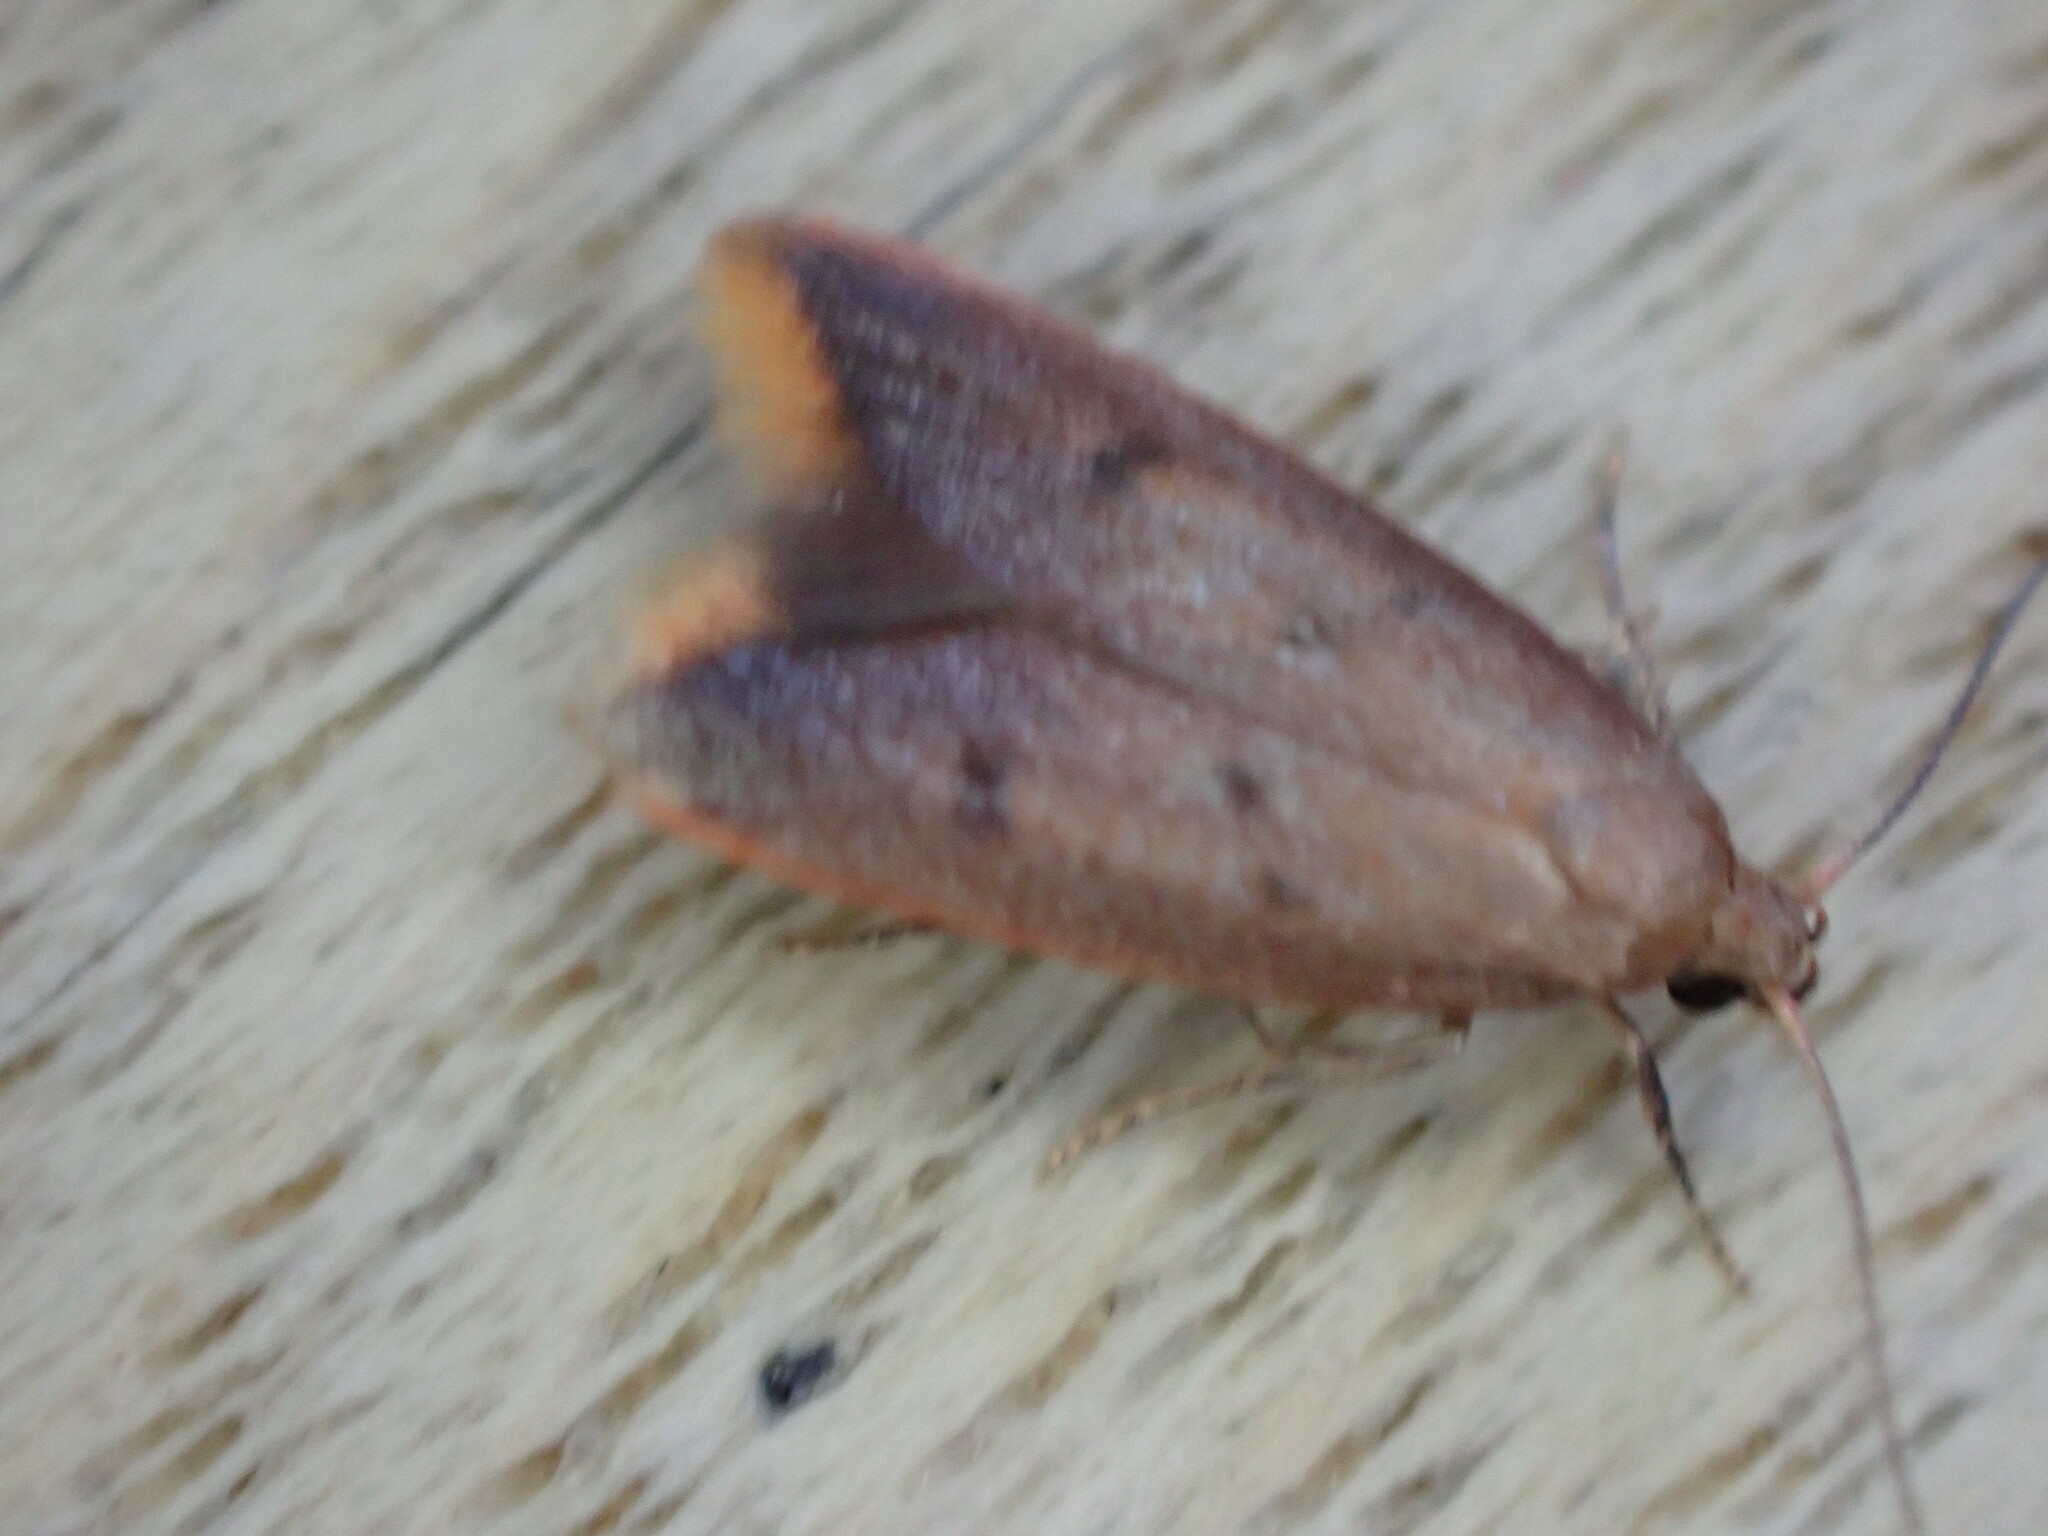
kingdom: Animalia
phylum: Arthropoda
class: Insecta
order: Lepidoptera
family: Oecophoridae
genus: Tachystola
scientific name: Tachystola acroxantha
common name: Ruddy streak
